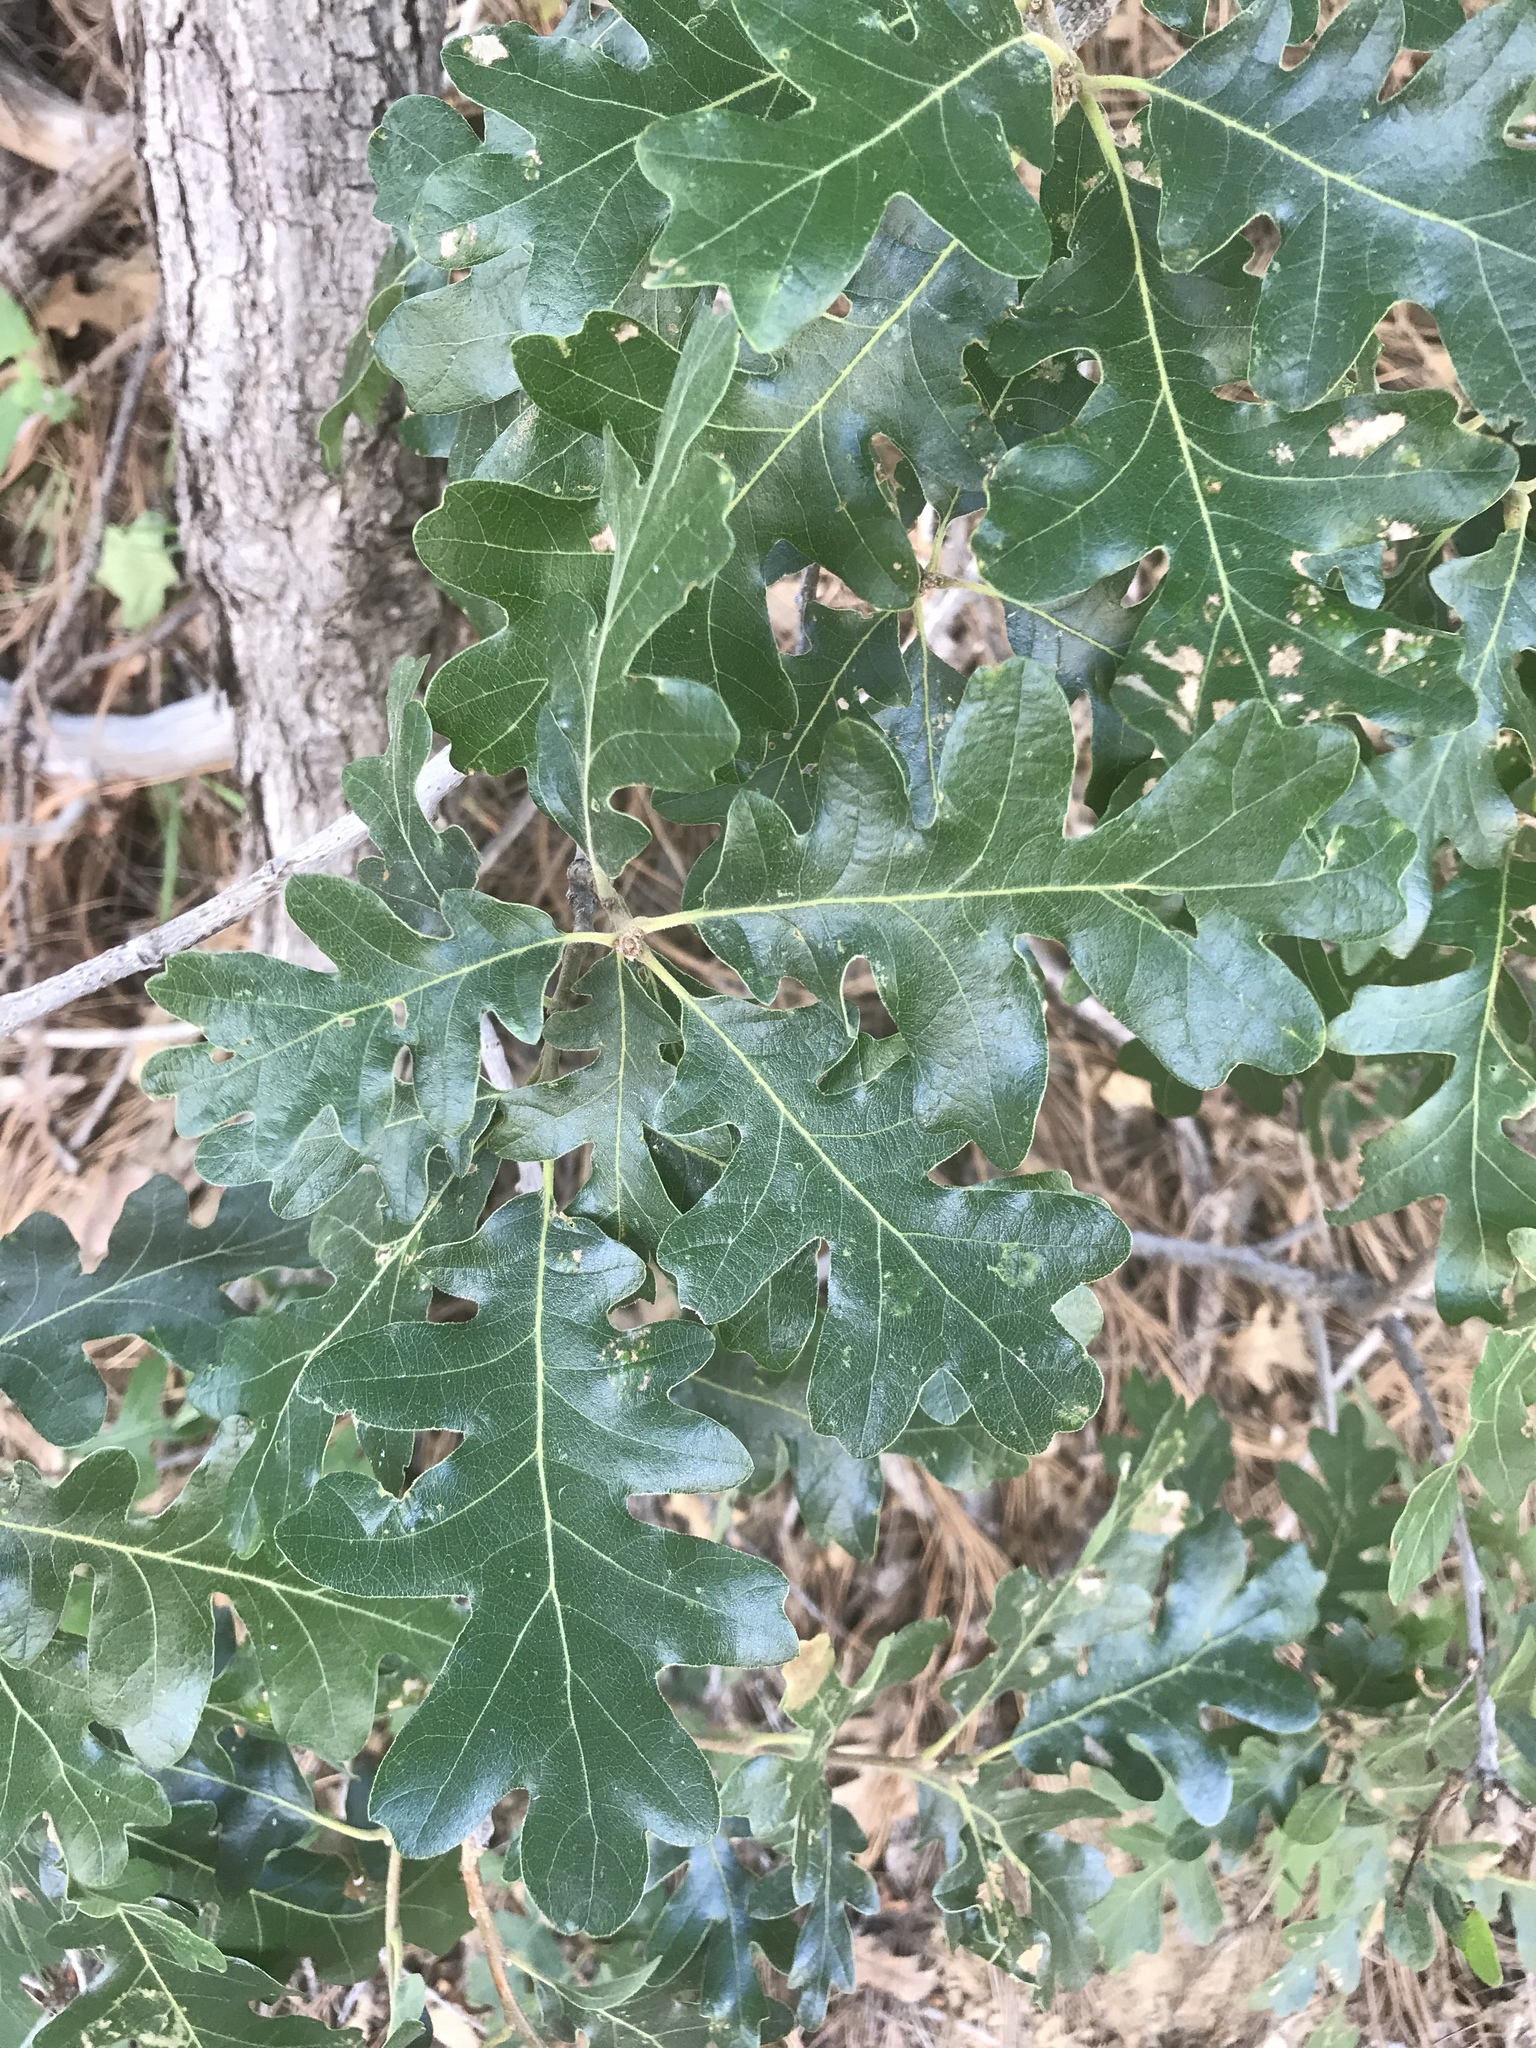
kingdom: Plantae
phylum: Tracheophyta
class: Magnoliopsida
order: Fagales
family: Fagaceae
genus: Quercus
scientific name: Quercus gambelii
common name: Gambel oak
